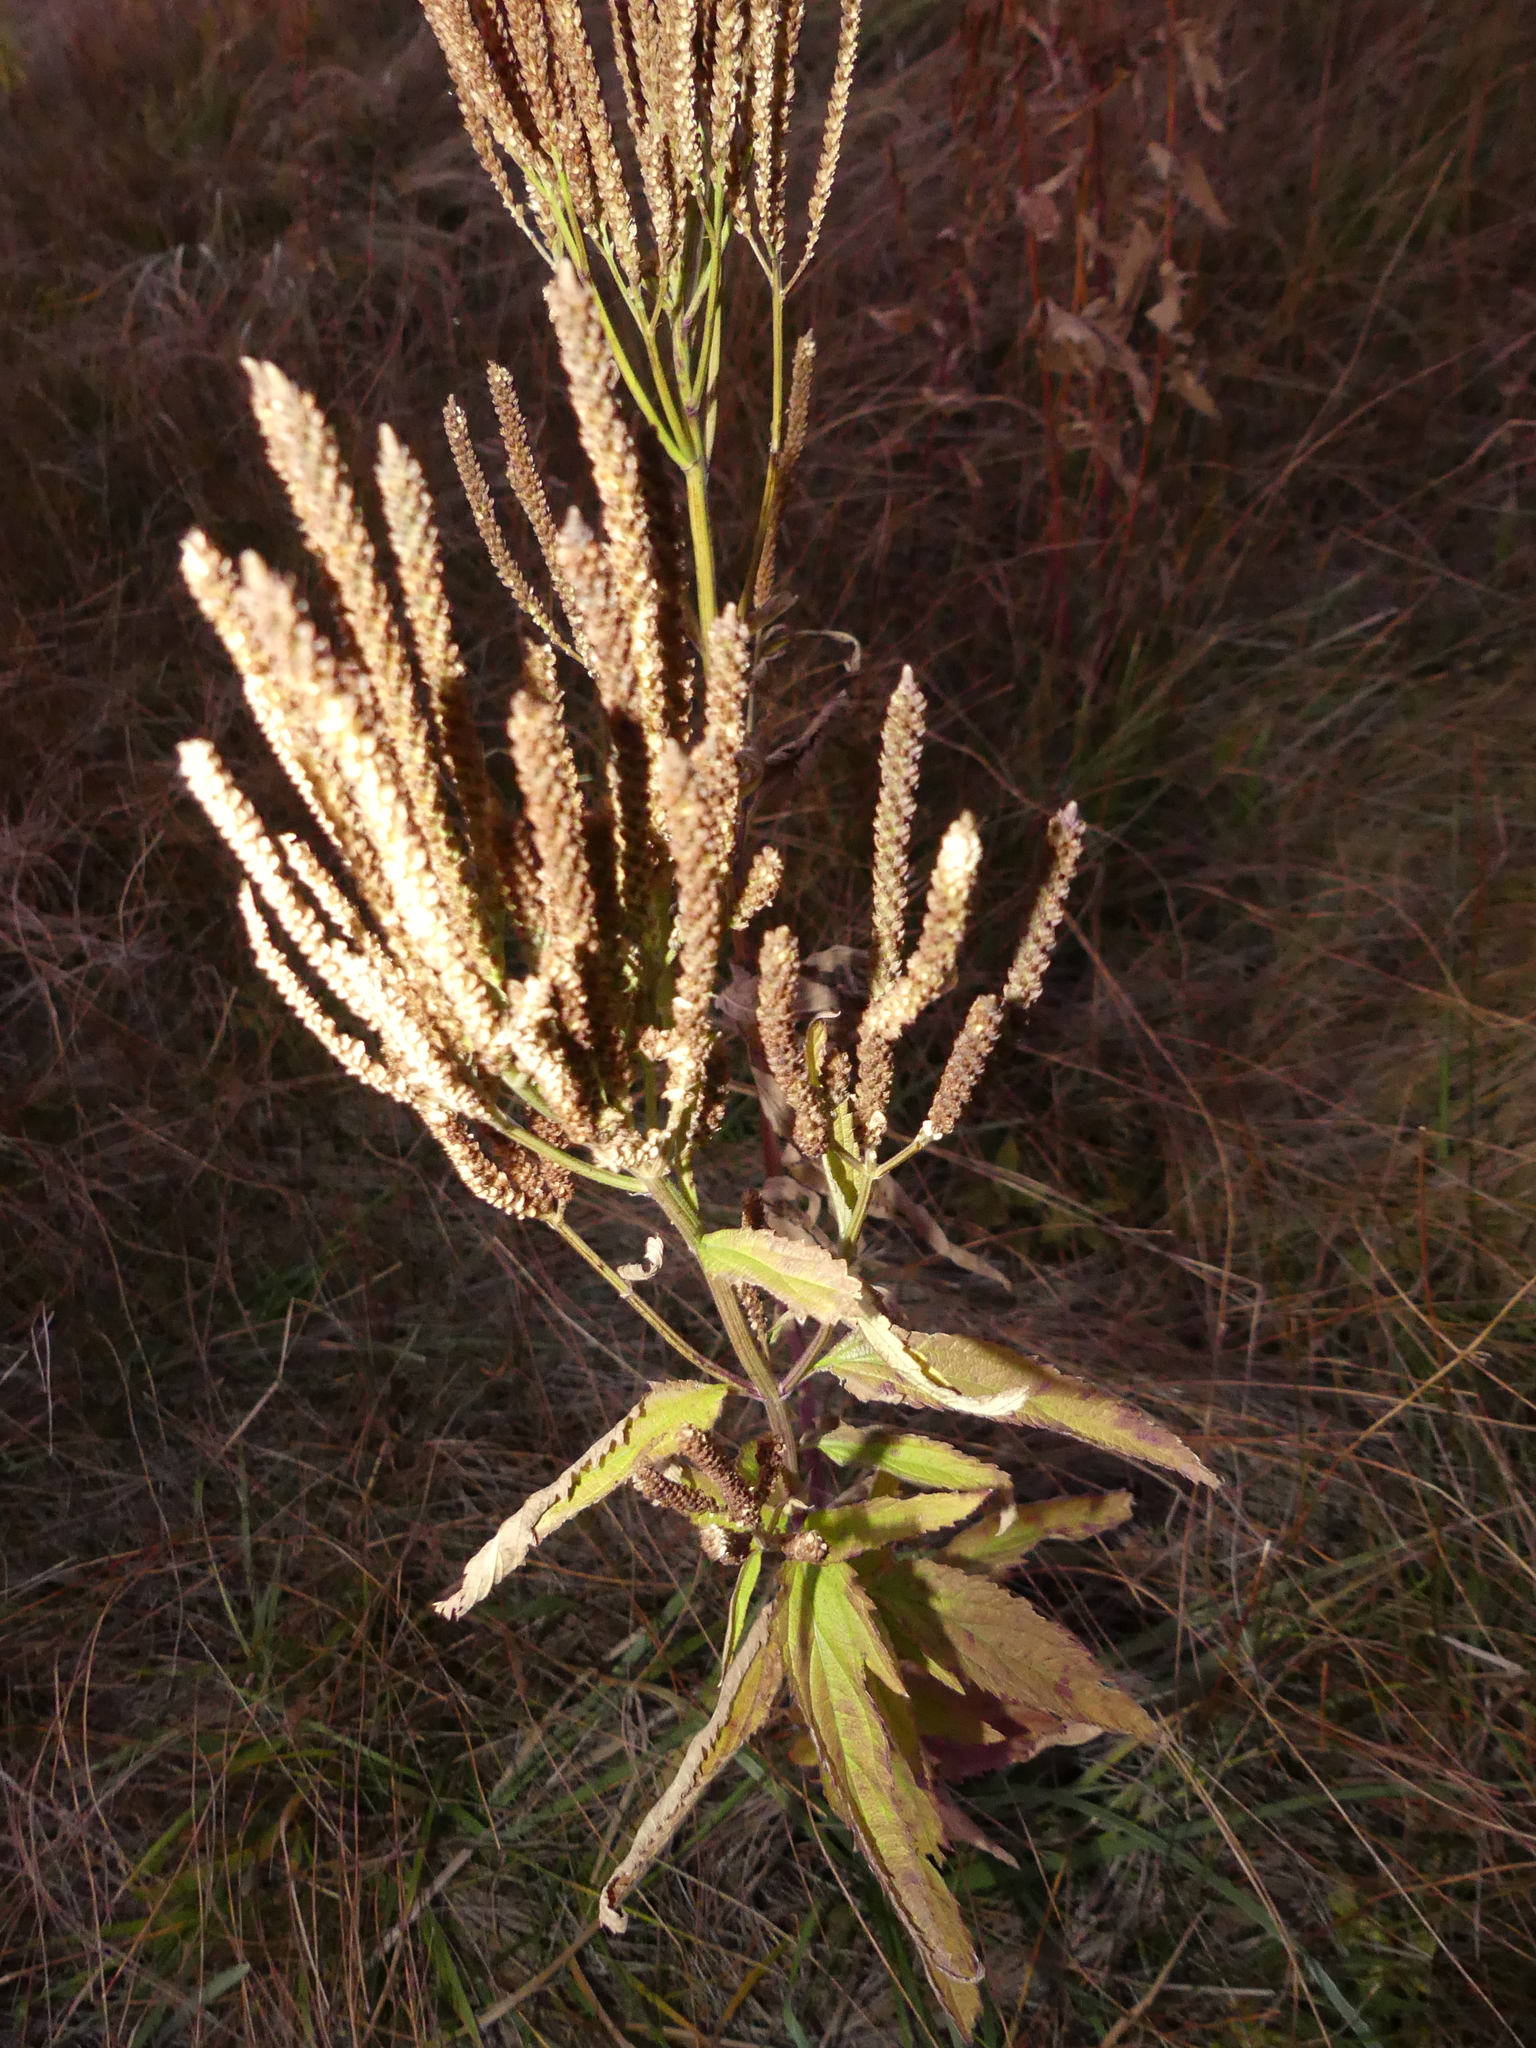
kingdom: Plantae
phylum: Tracheophyta
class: Magnoliopsida
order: Lamiales
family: Verbenaceae
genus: Verbena
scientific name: Verbena hastata
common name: American blue vervain
